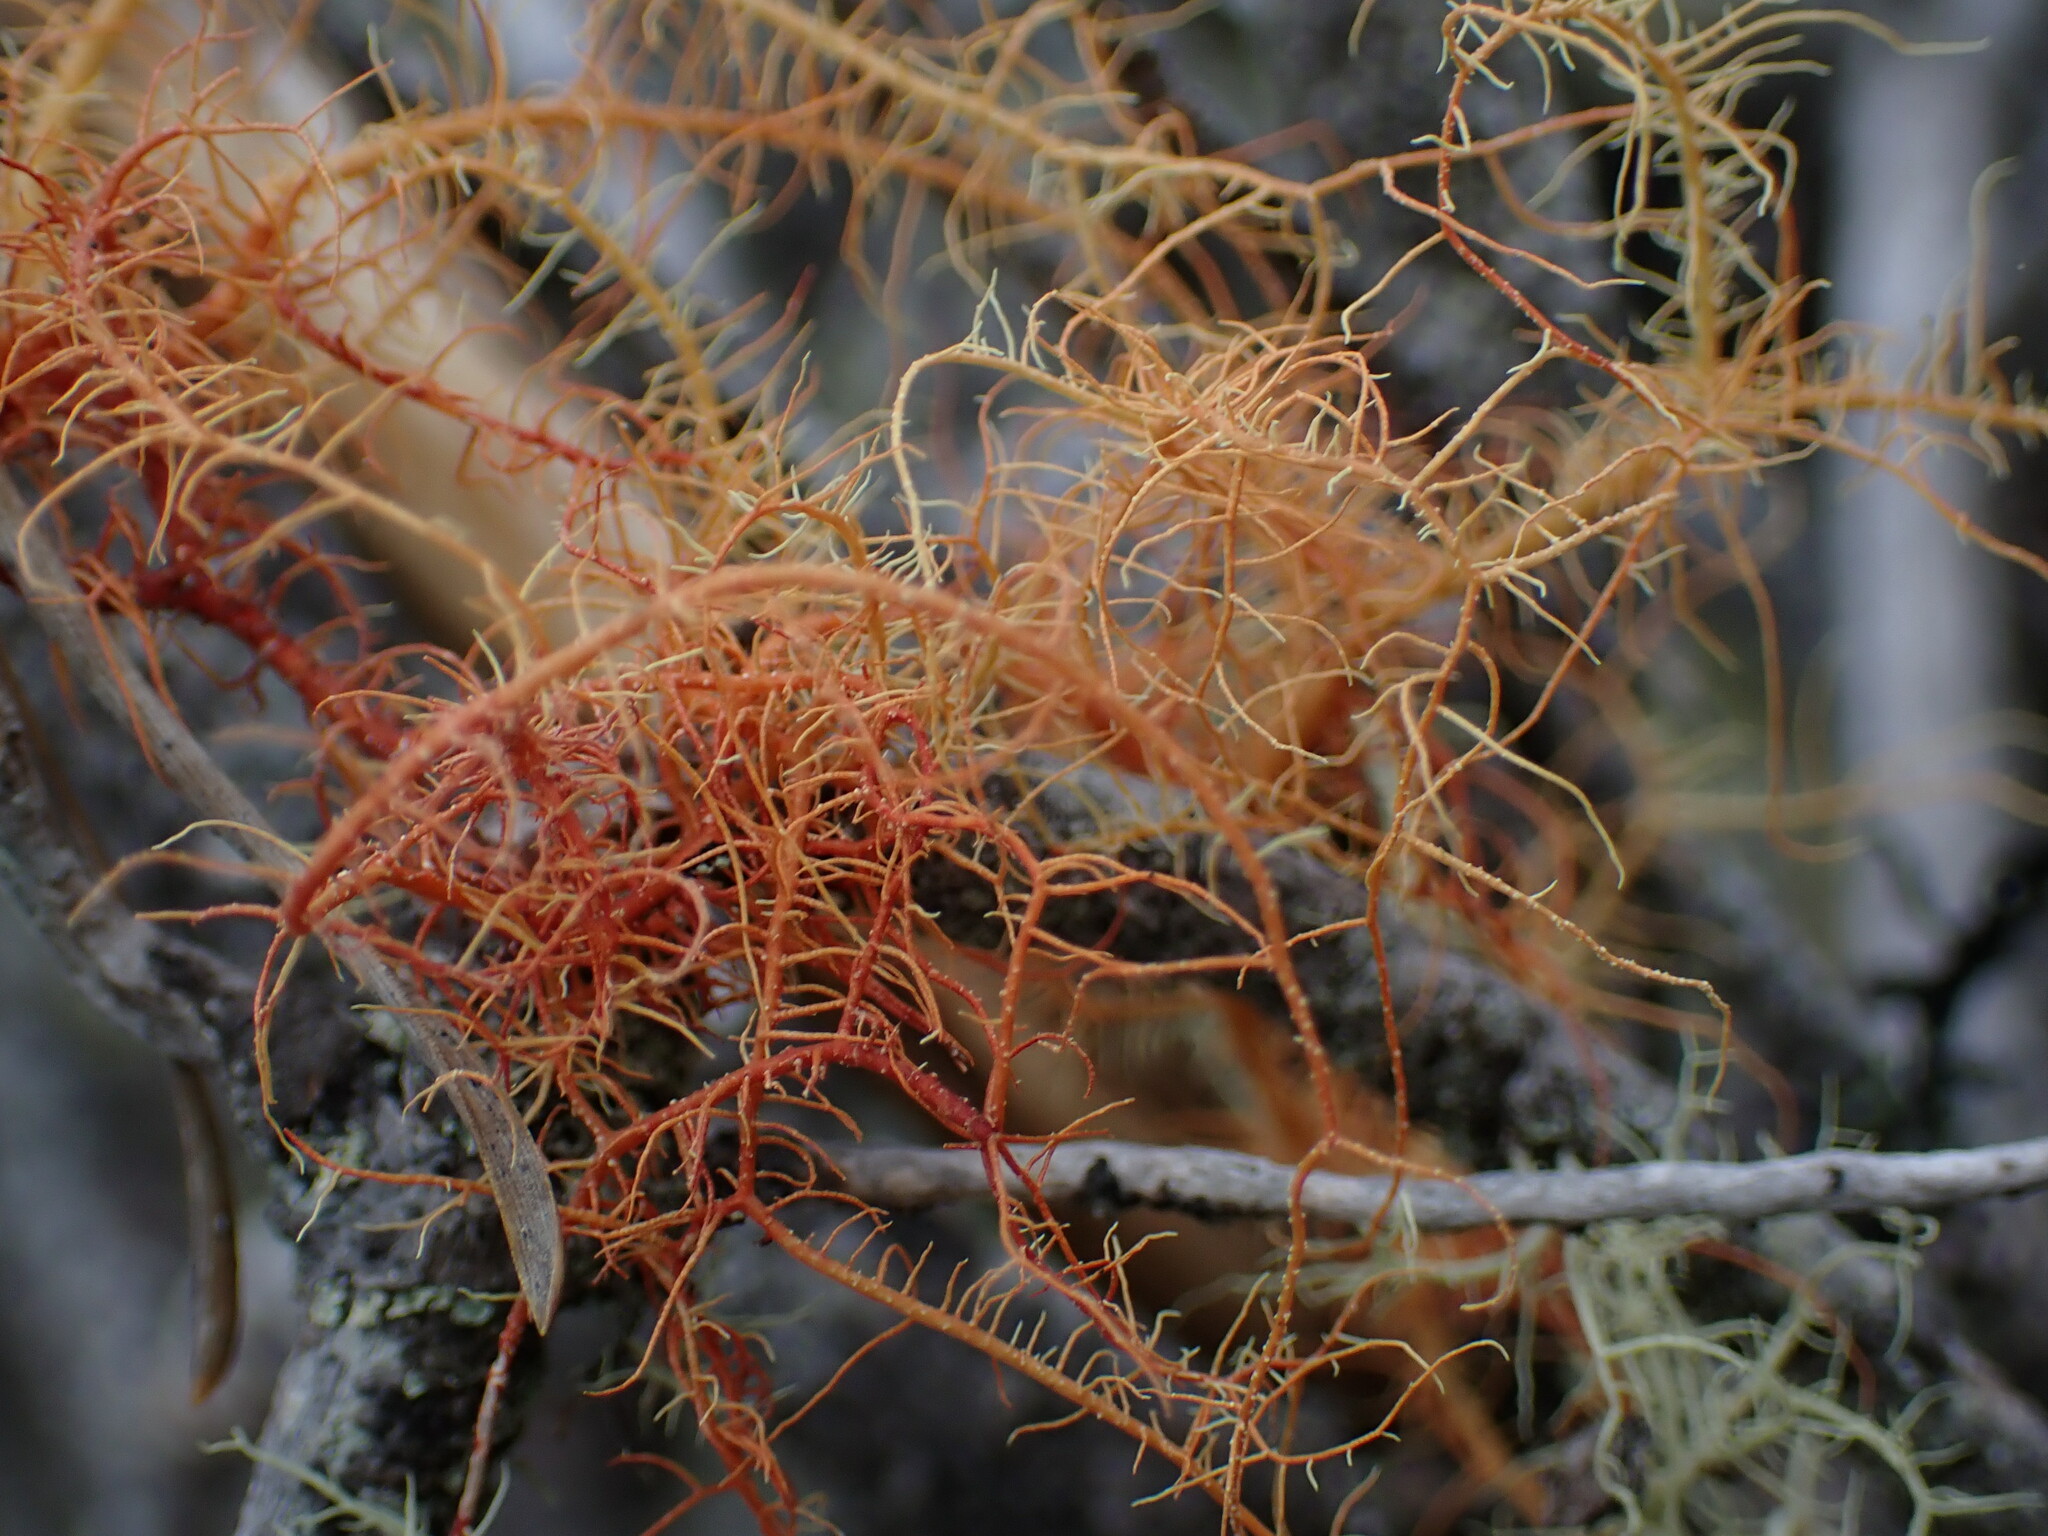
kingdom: Fungi
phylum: Ascomycota
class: Lecanoromycetes
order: Lecanorales
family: Parmeliaceae
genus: Usnea
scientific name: Usnea rubicunda
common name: Red beard lichen
